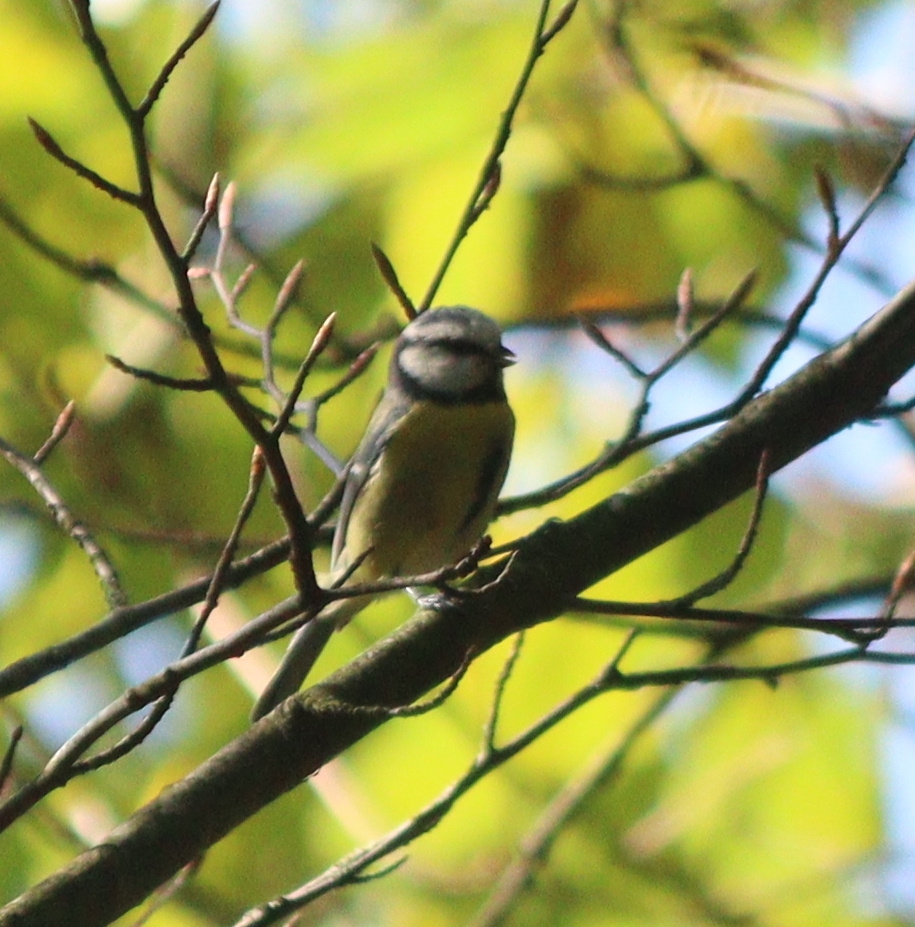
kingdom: Animalia
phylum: Chordata
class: Aves
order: Passeriformes
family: Paridae
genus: Cyanistes
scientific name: Cyanistes caeruleus
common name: Eurasian blue tit
